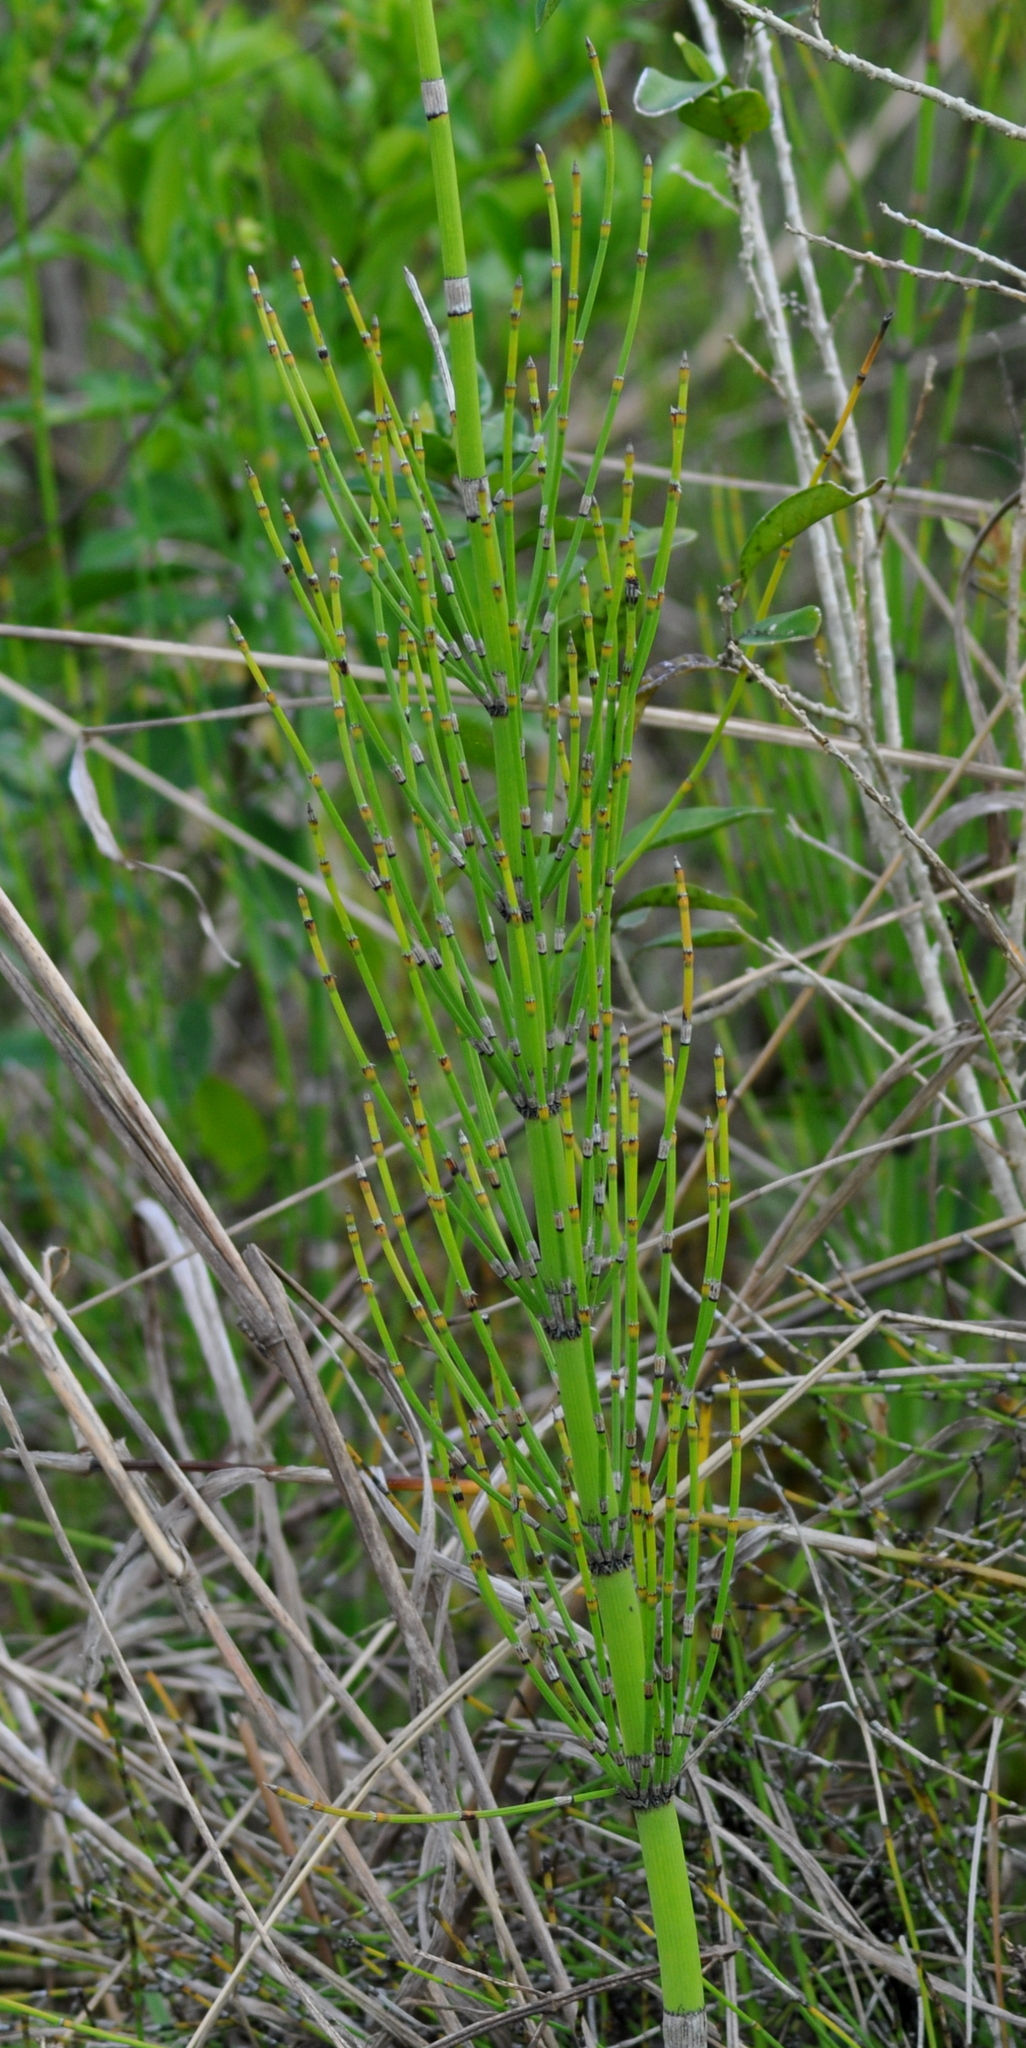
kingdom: Plantae
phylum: Tracheophyta
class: Polypodiopsida
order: Equisetales
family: Equisetaceae
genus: Equisetum
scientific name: Equisetum giganteum
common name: Giant horsetail
